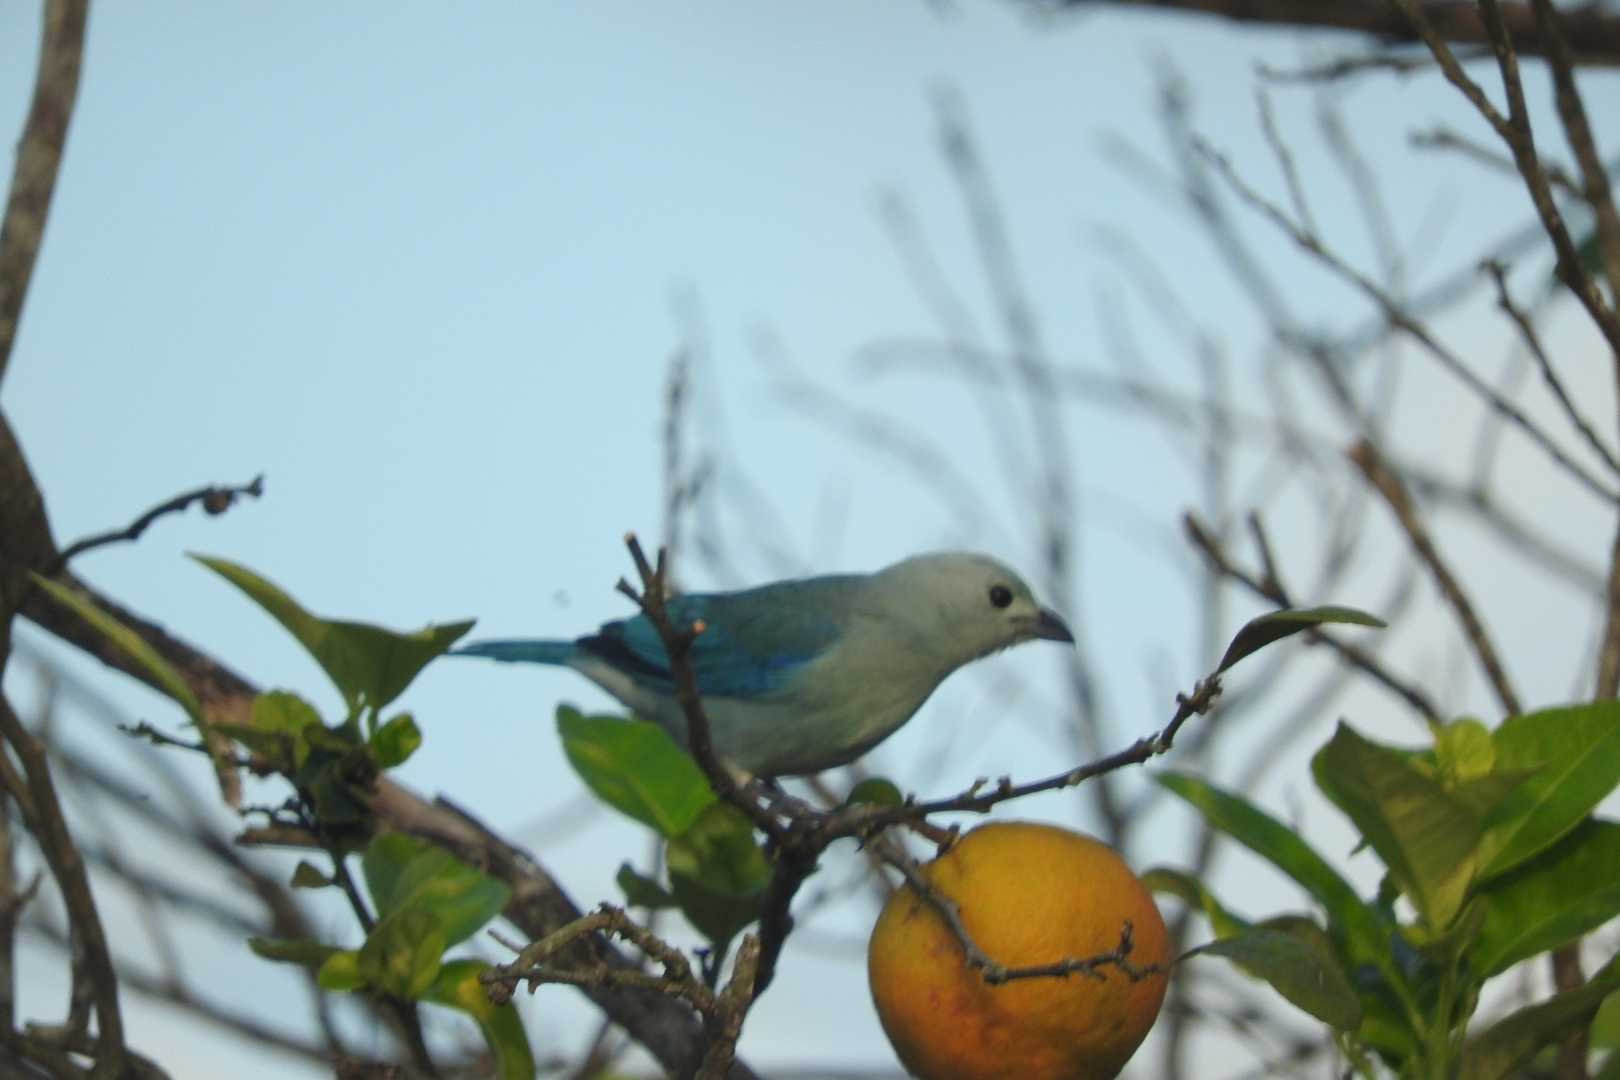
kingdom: Animalia
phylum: Chordata
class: Aves
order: Passeriformes
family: Thraupidae
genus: Thraupis
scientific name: Thraupis episcopus
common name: Blue-grey tanager
